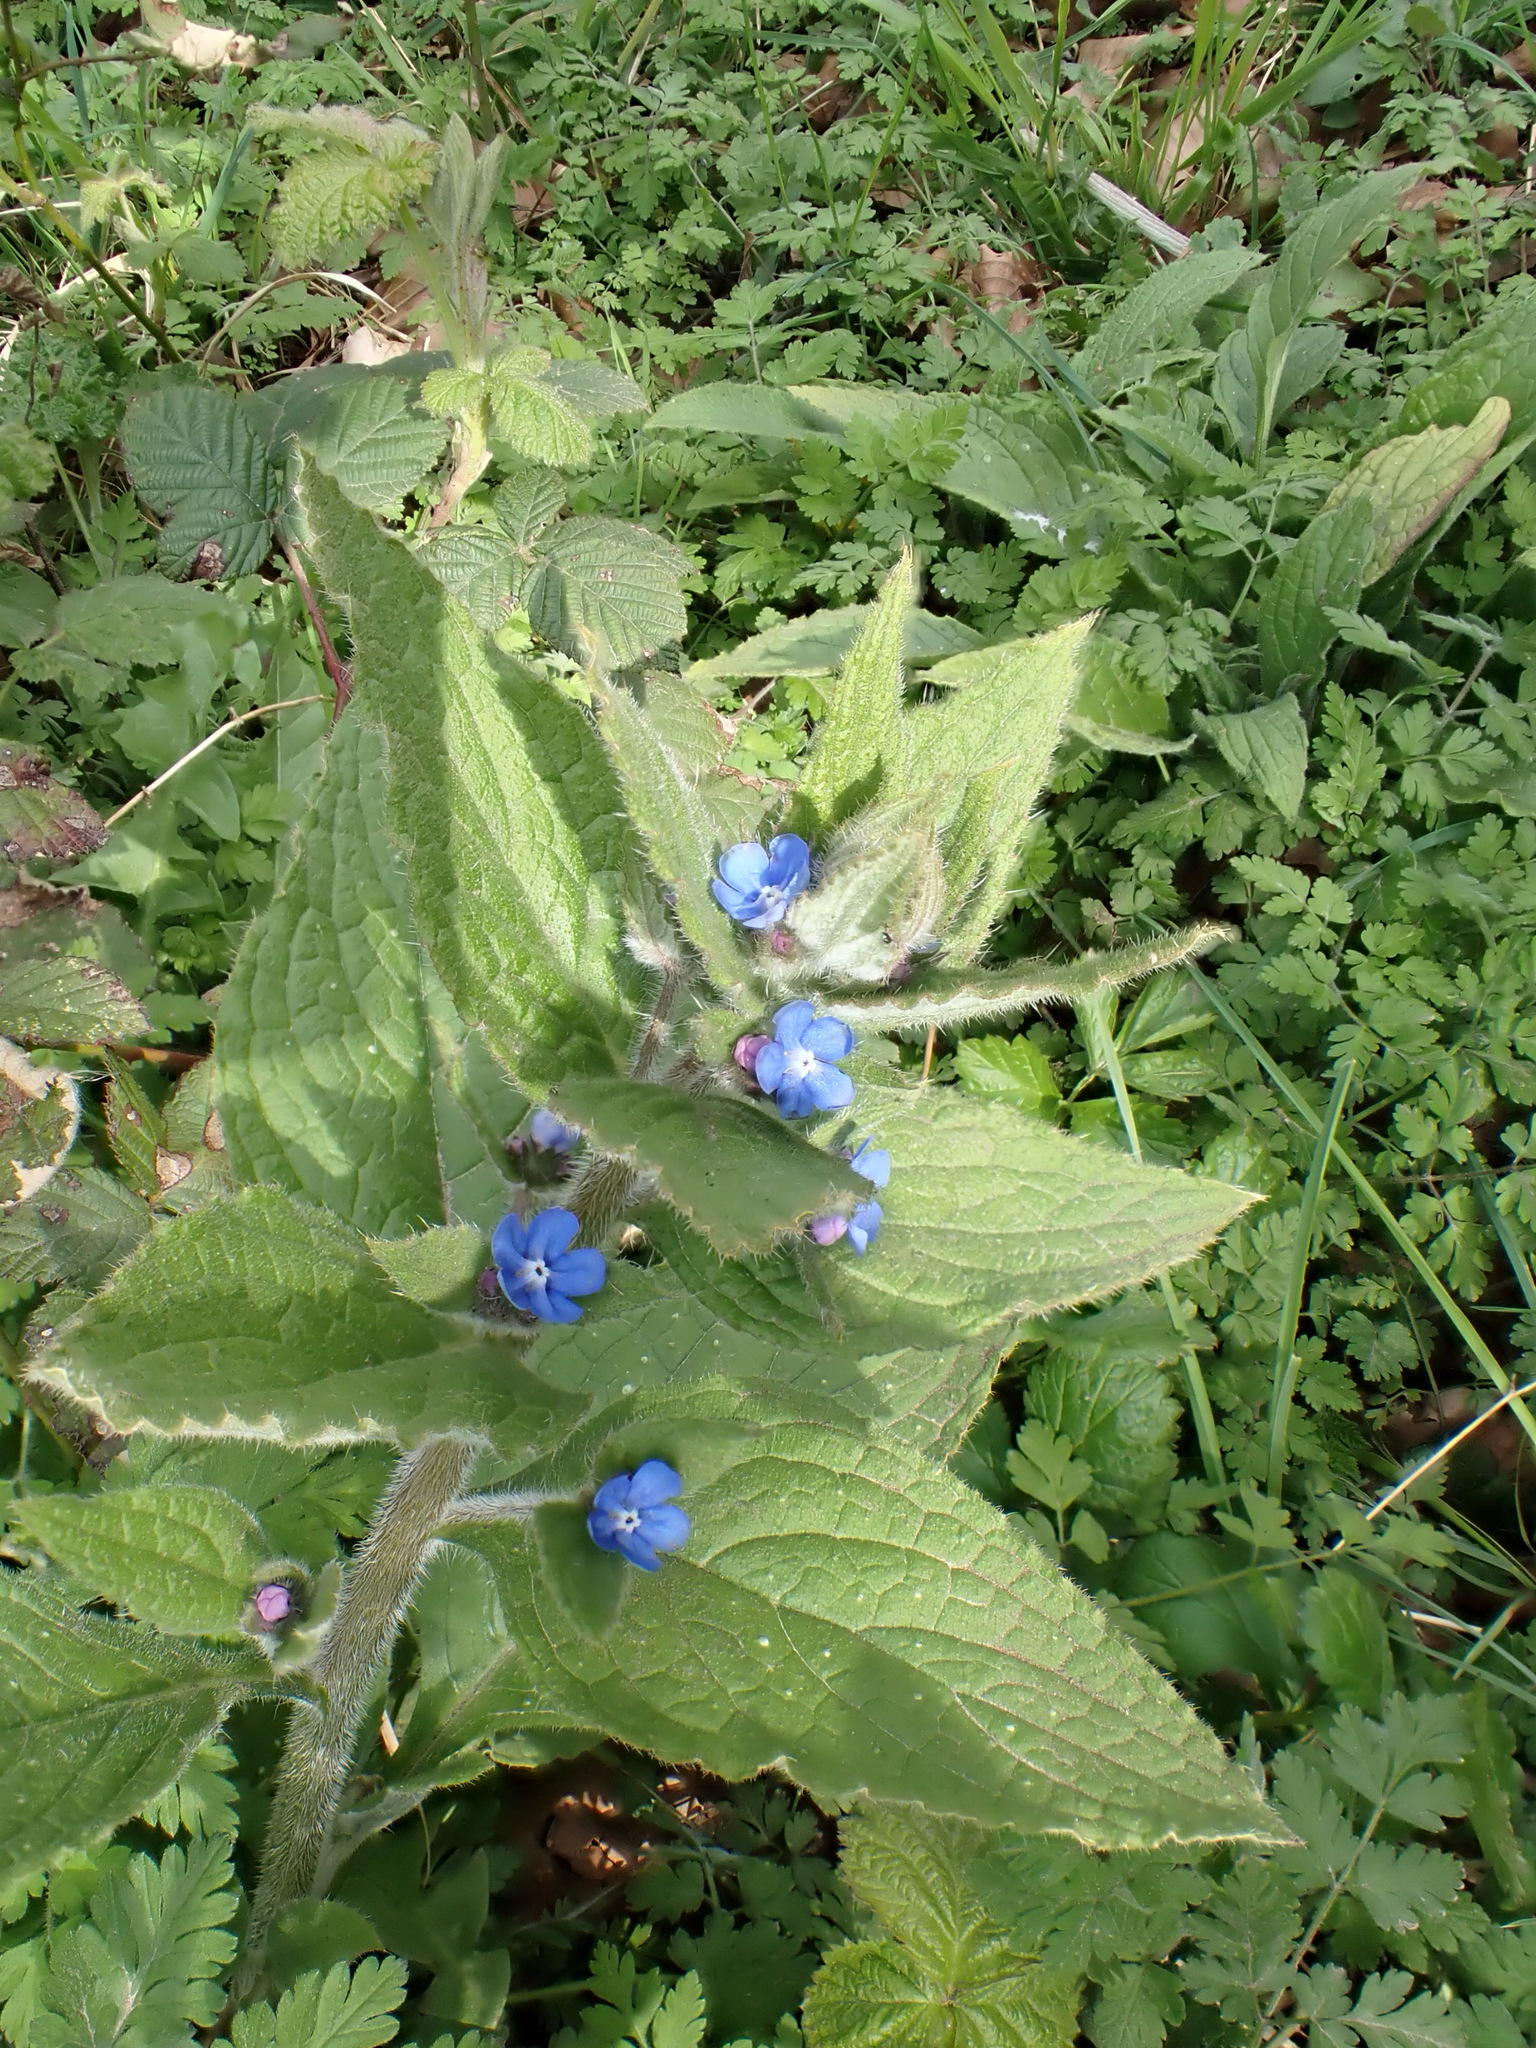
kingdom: Plantae
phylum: Tracheophyta
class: Magnoliopsida
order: Boraginales
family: Boraginaceae
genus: Pentaglottis
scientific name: Pentaglottis sempervirens
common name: Green alkanet
